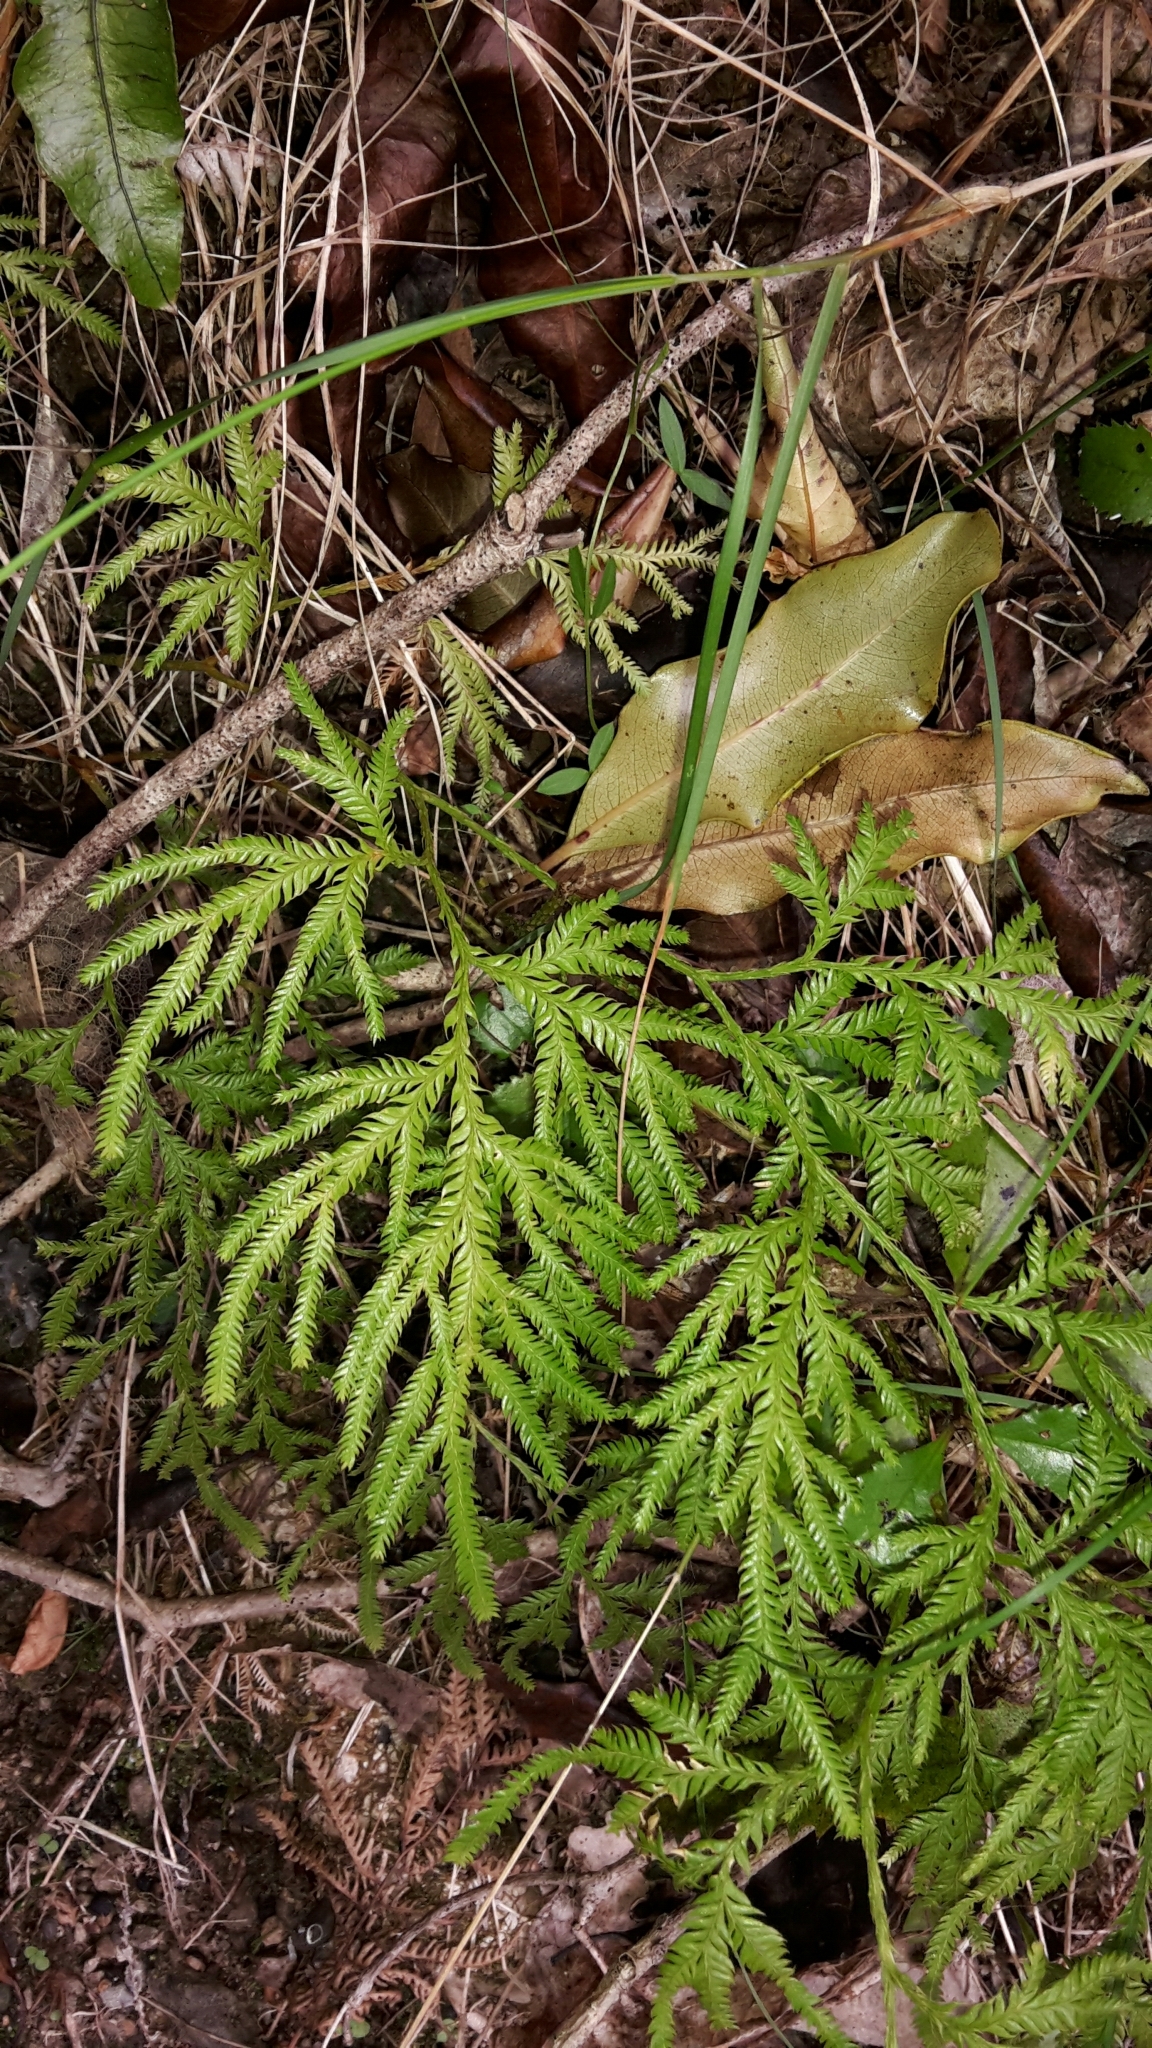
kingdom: Plantae
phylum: Tracheophyta
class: Lycopodiopsida
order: Lycopodiales
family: Lycopodiaceae
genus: Lycopodium
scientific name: Lycopodium volubile
